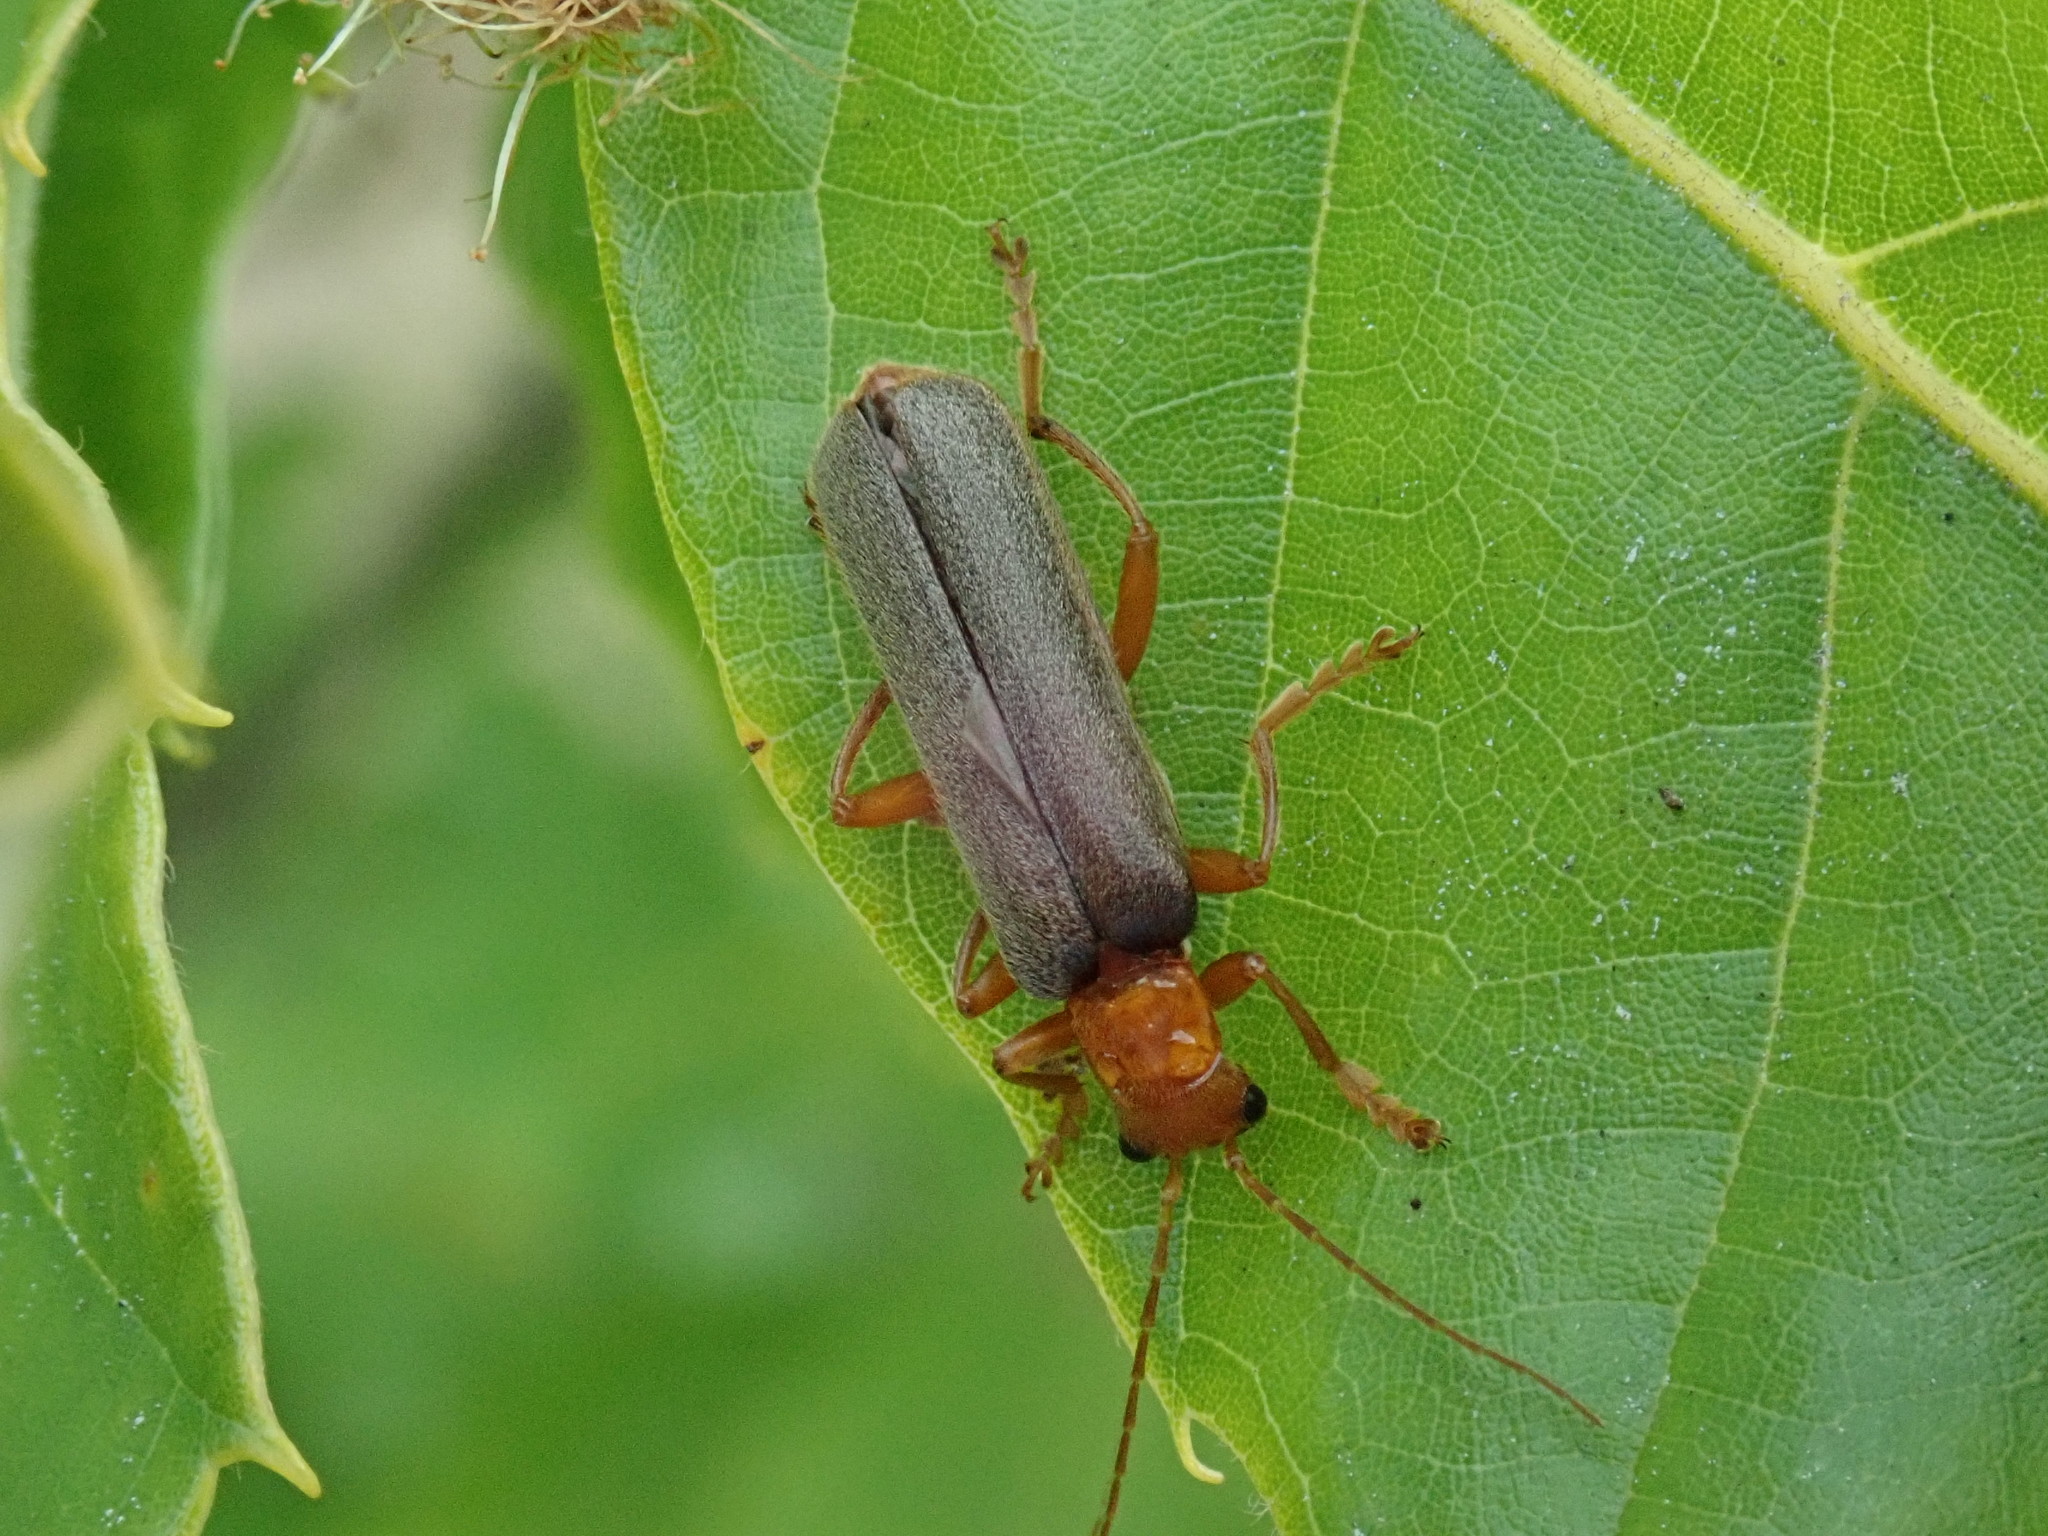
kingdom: Animalia
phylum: Arthropoda
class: Insecta
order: Coleoptera
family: Cantharidae
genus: Pacificanthia
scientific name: Pacificanthia rotundicollis
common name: Brown leatherwing beetle
